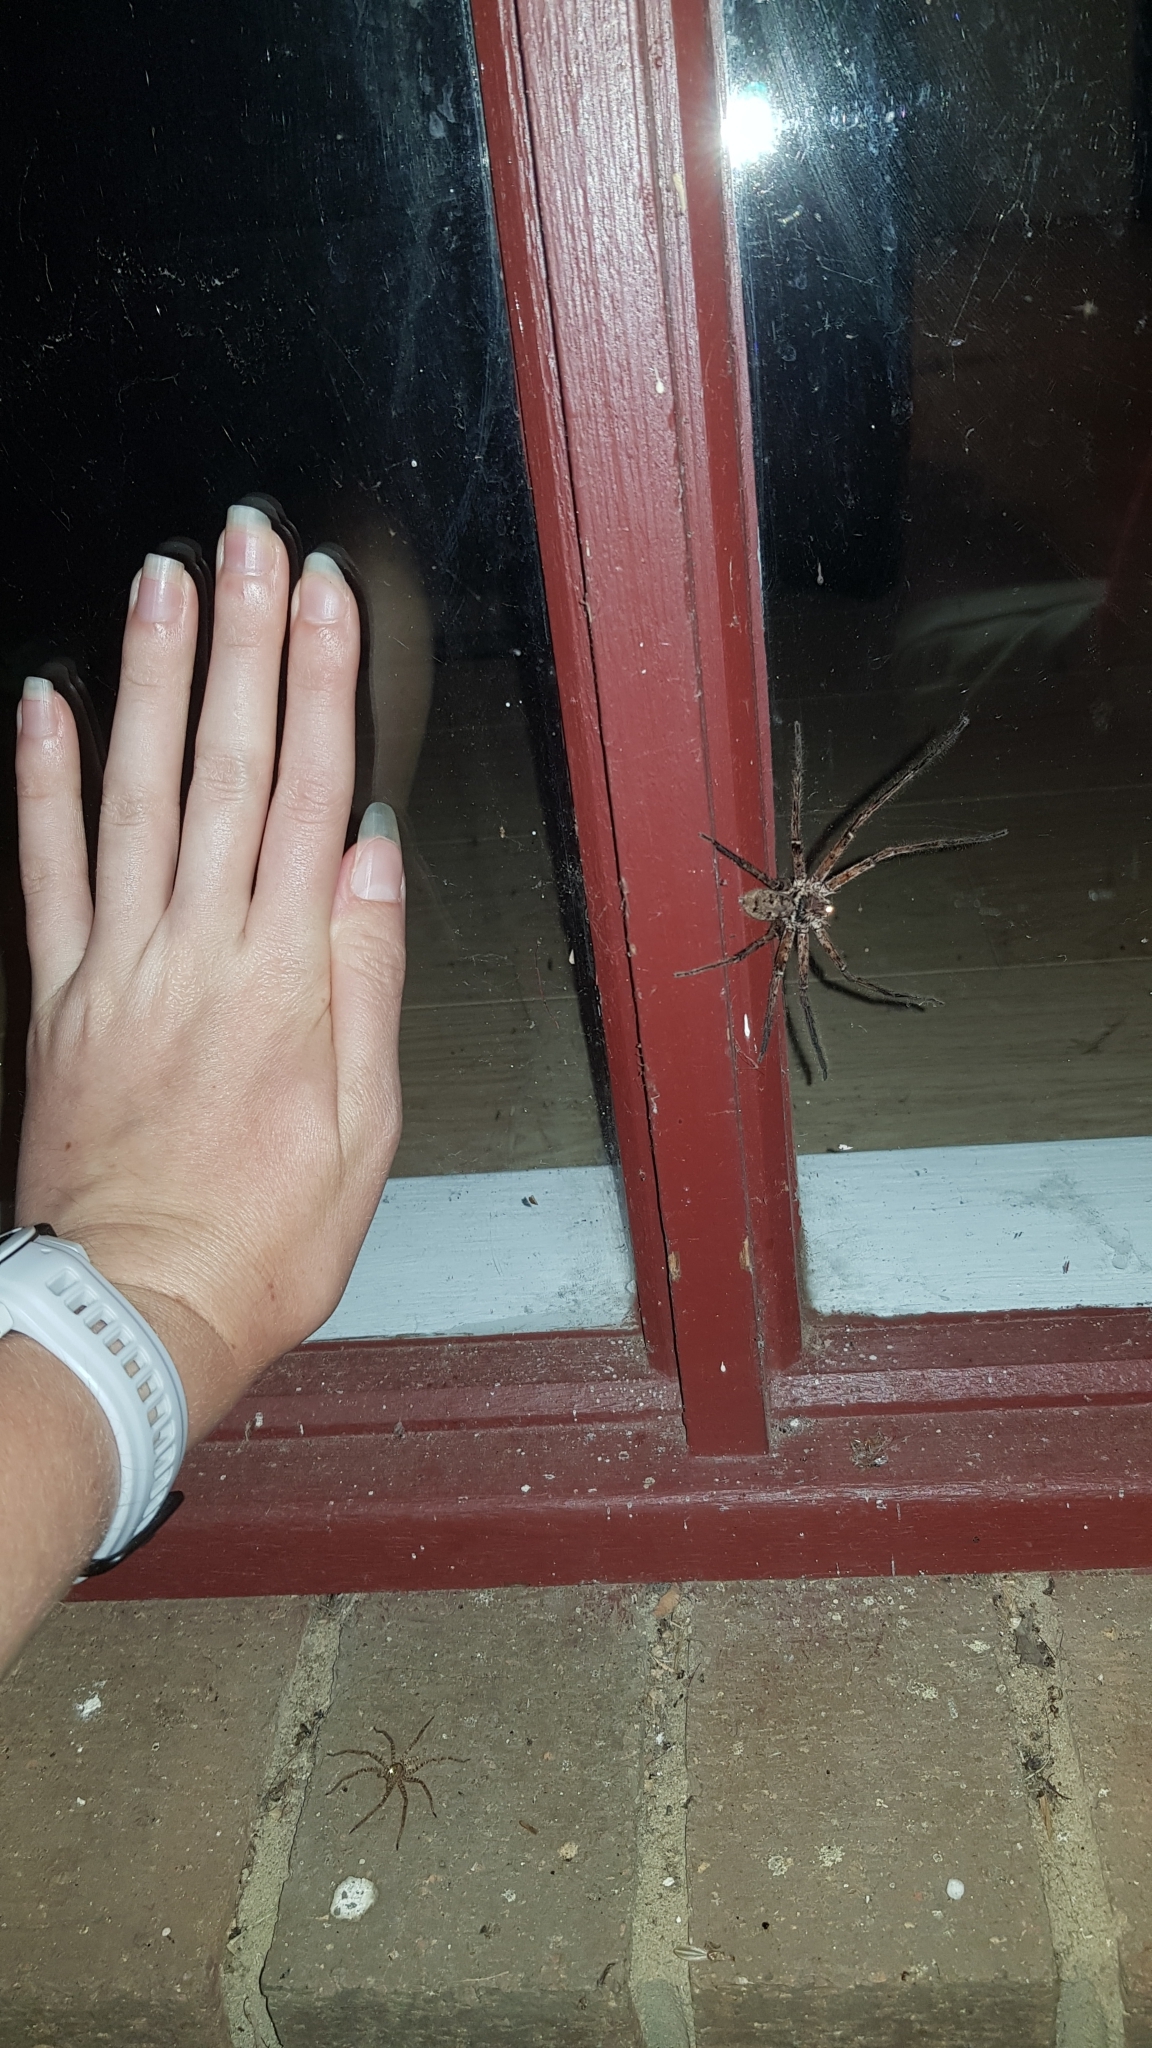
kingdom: Animalia
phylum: Arthropoda
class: Arachnida
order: Araneae
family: Sparassidae
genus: Heteropoda
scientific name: Heteropoda jugulans
